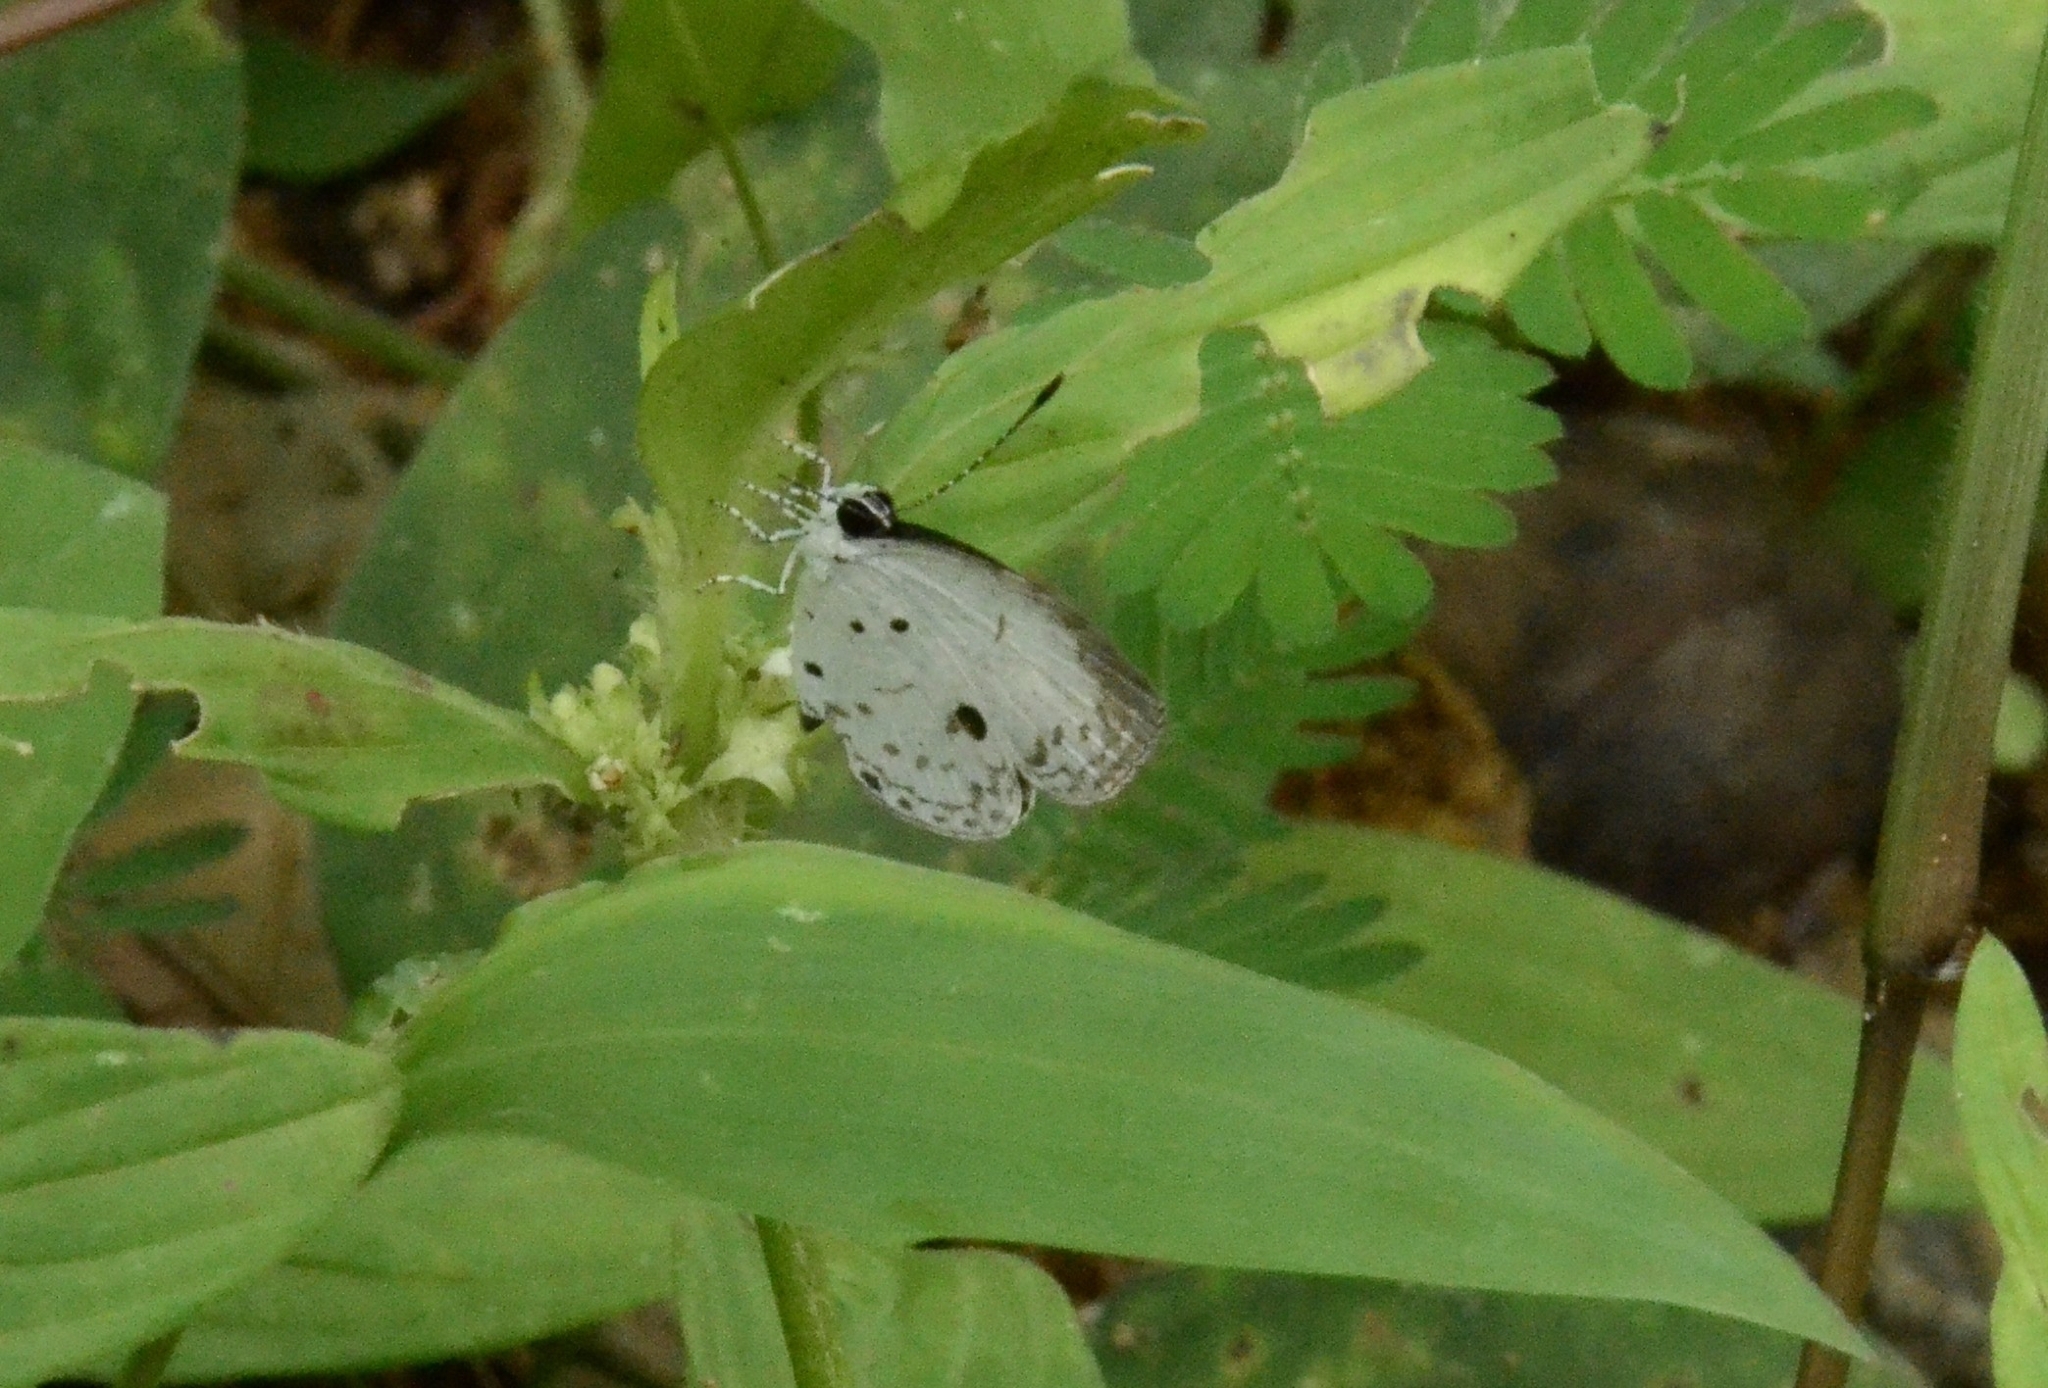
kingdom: Animalia
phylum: Arthropoda
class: Insecta
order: Lepidoptera
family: Lycaenidae
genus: Neopithecops
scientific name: Neopithecops zalmora
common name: Quaker
